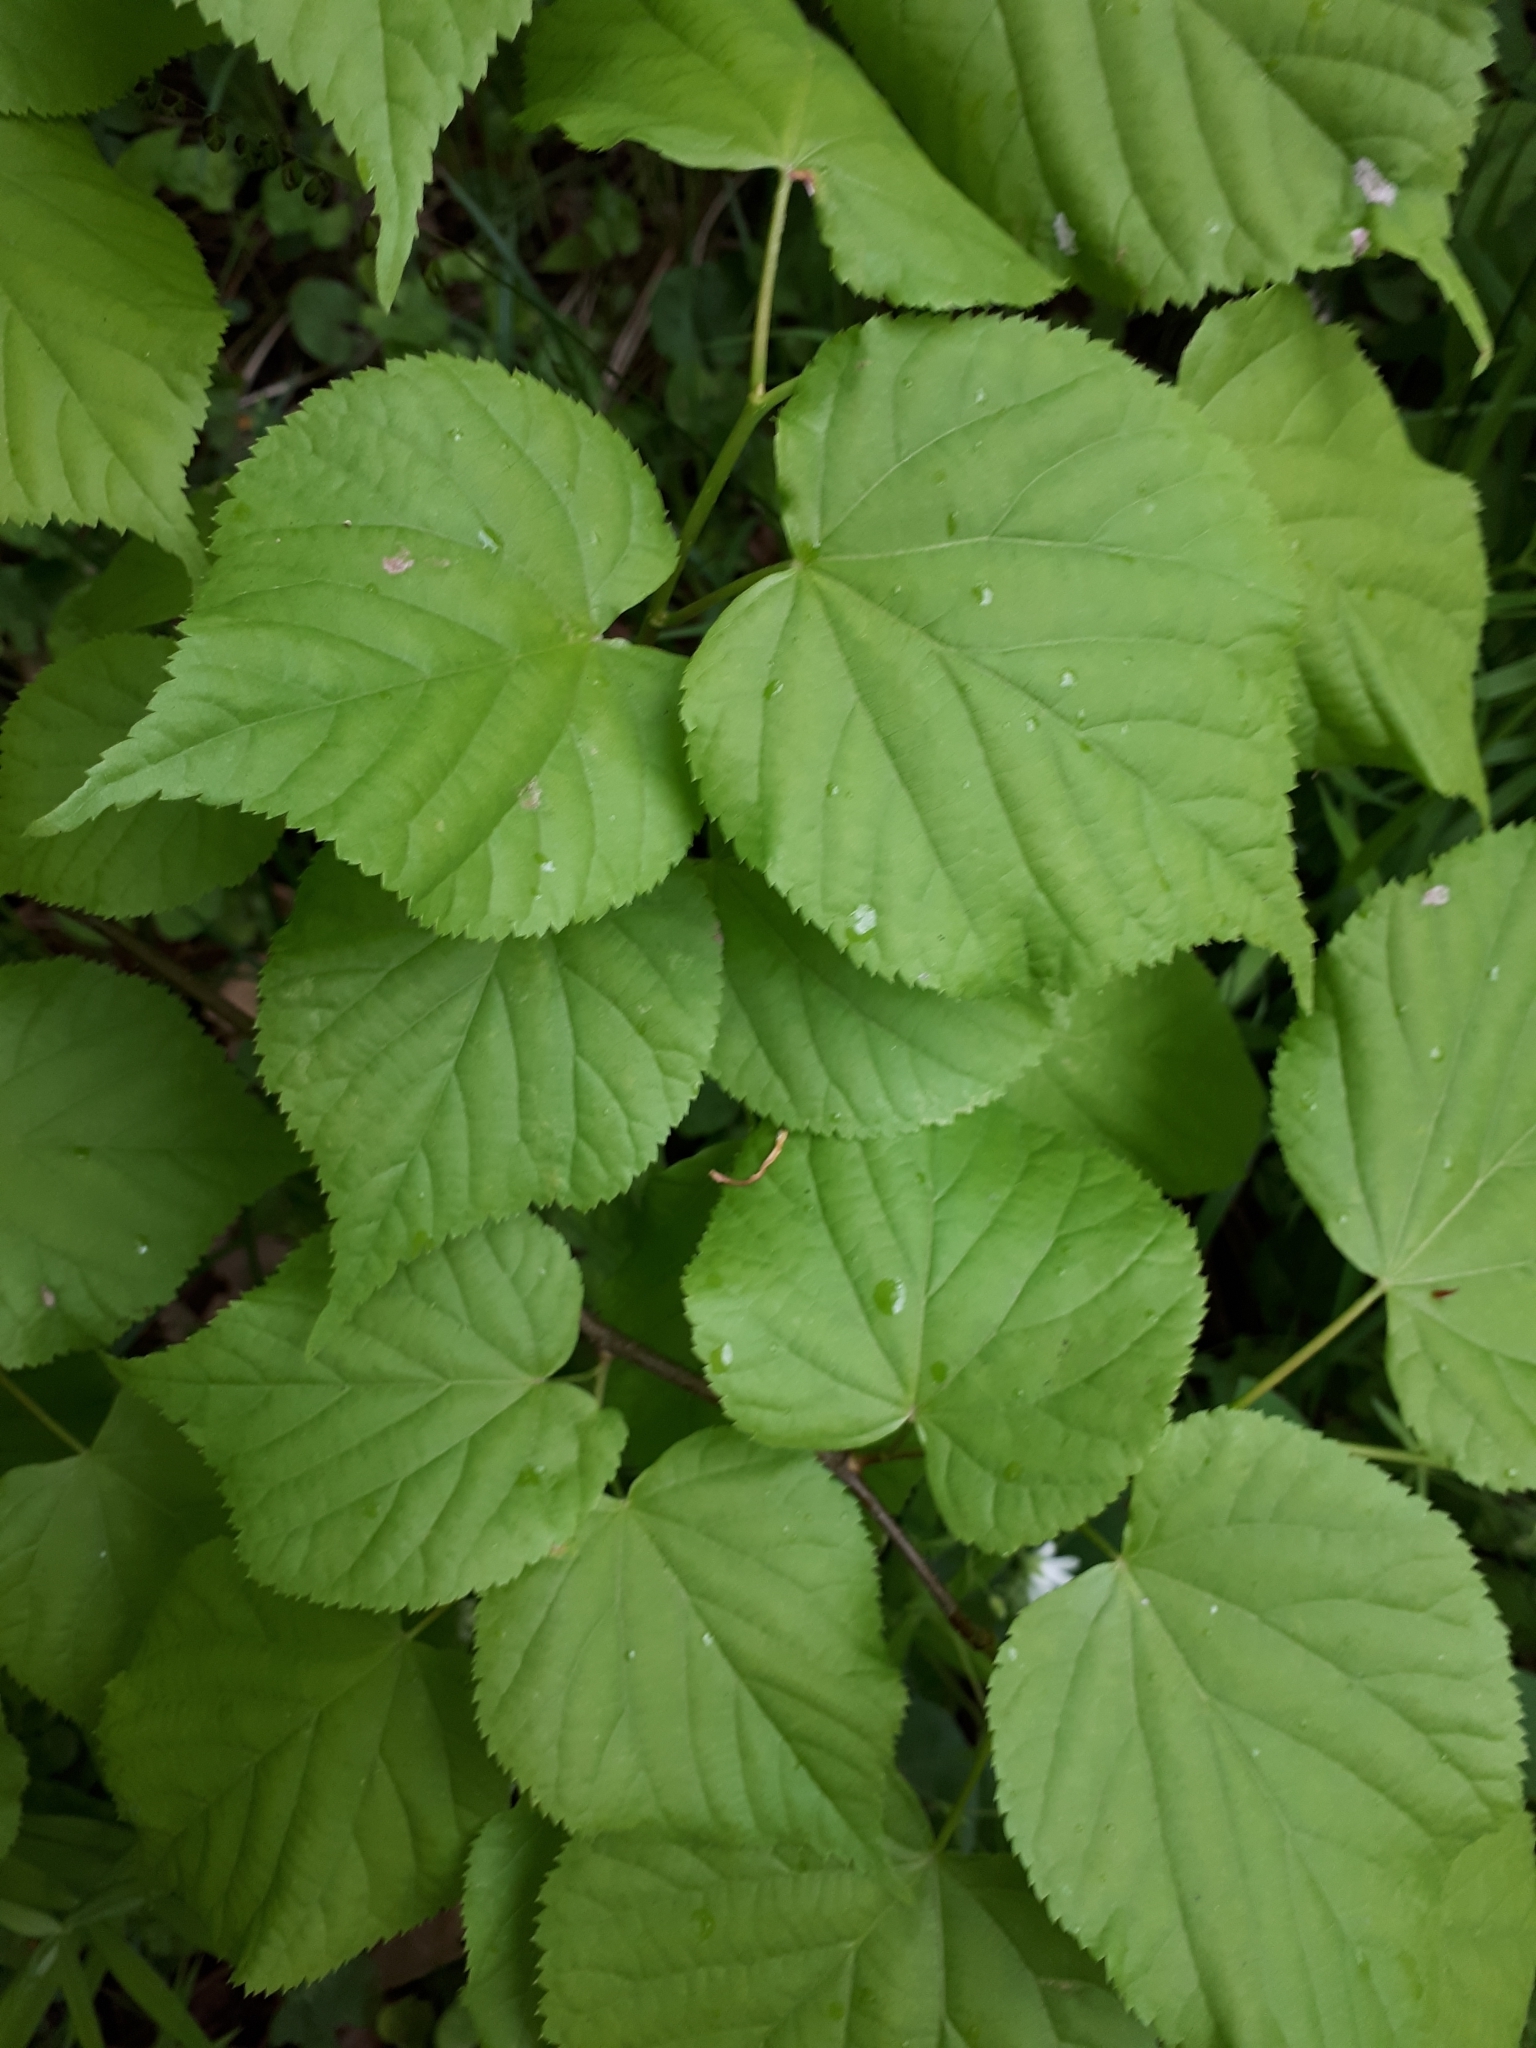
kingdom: Plantae
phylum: Tracheophyta
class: Magnoliopsida
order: Malvales
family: Malvaceae
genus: Tilia
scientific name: Tilia cordata
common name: Small-leaved lime
